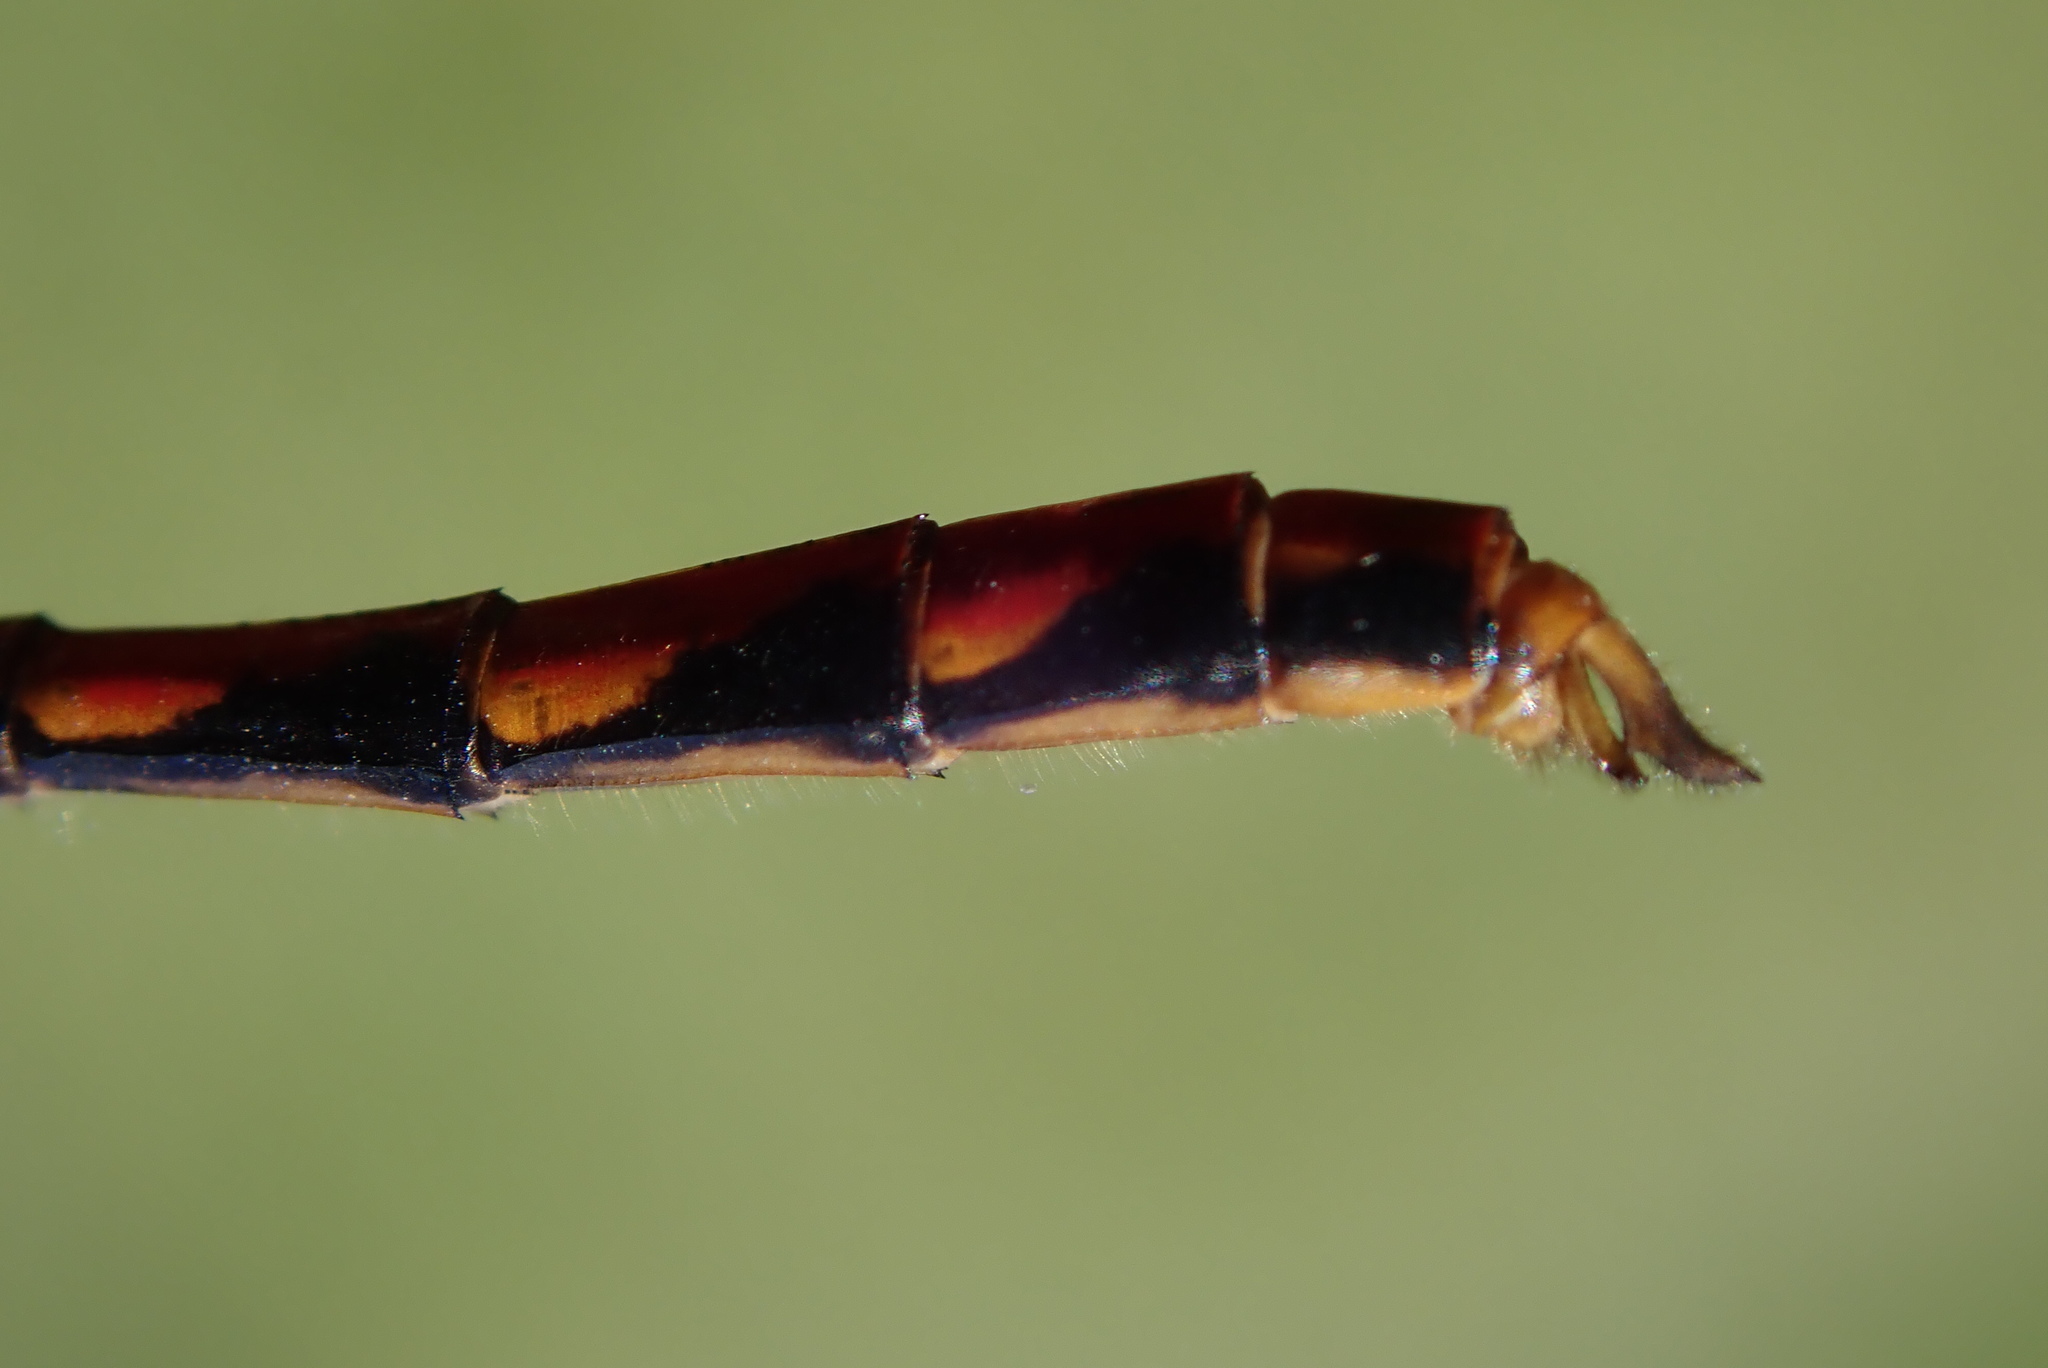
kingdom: Animalia
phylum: Arthropoda
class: Insecta
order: Odonata
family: Libellulidae
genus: Sympetrum
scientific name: Sympetrum obtrusum
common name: White-faced meadowhawk
